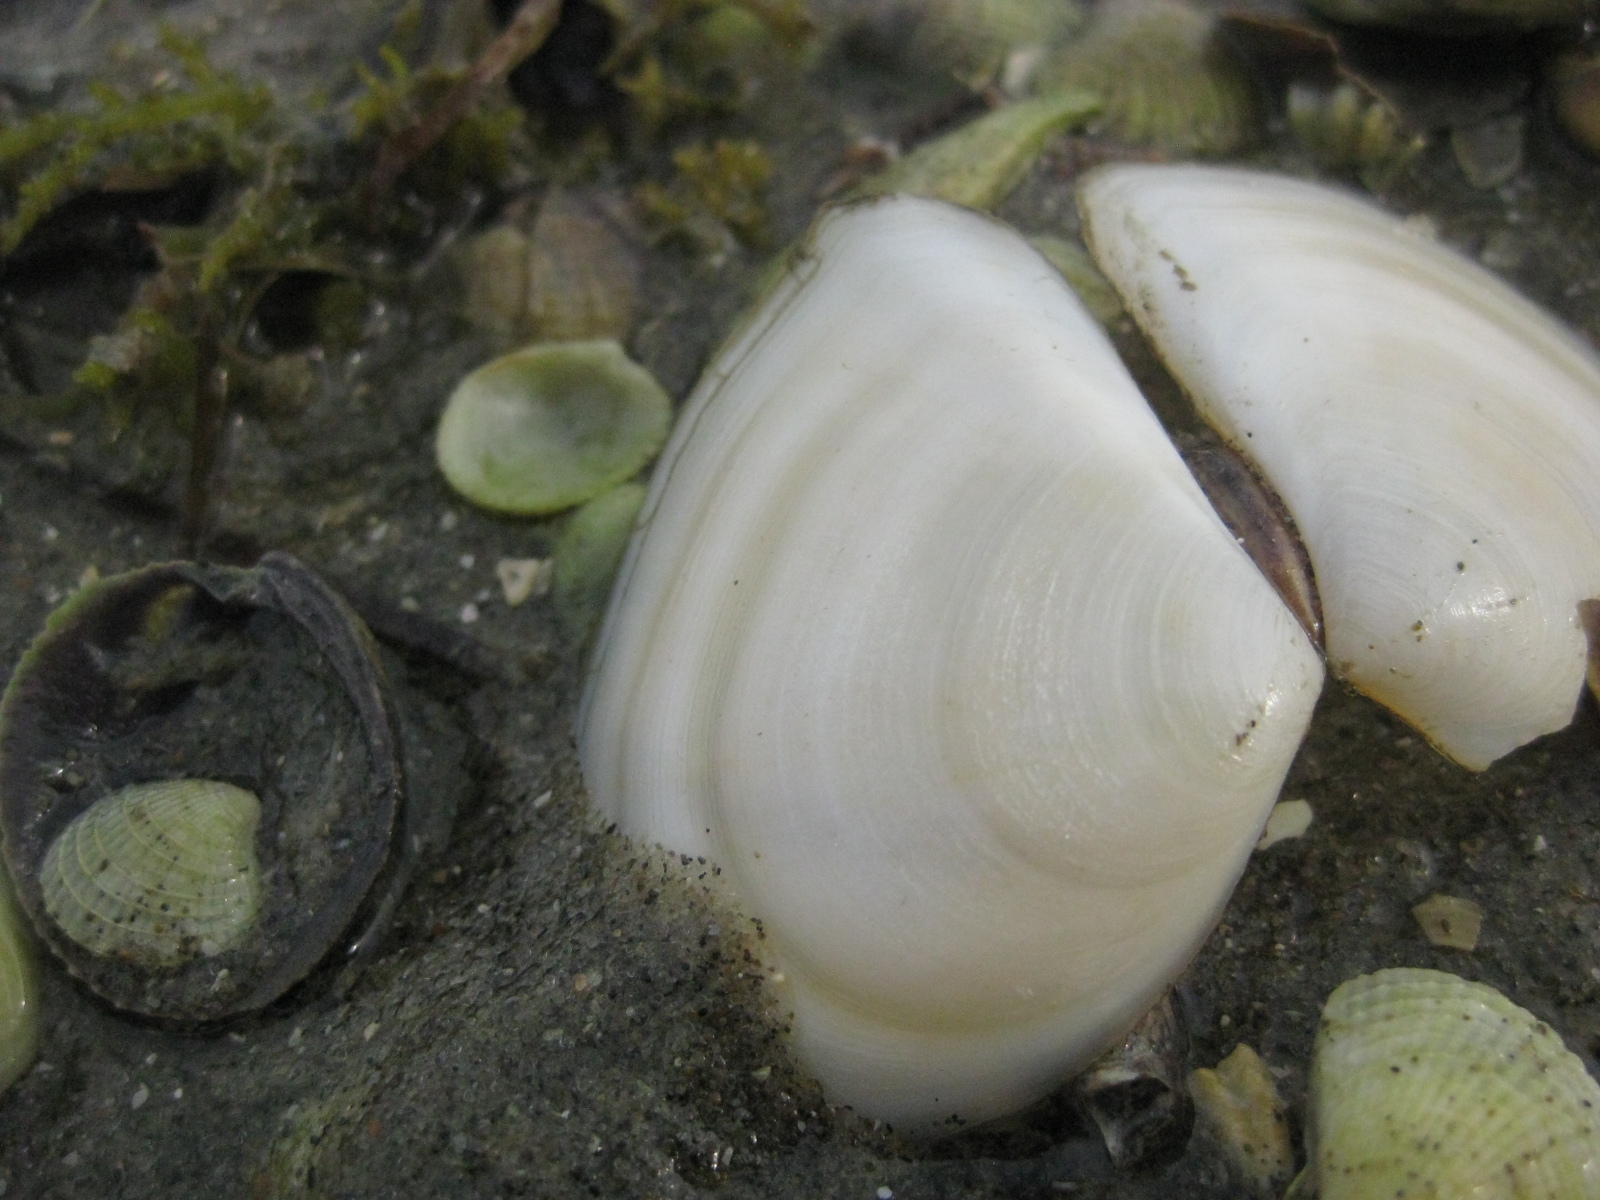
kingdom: Animalia
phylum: Mollusca
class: Bivalvia
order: Cardiida
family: Tellinidae
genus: Macomona
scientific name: Macomona liliana
